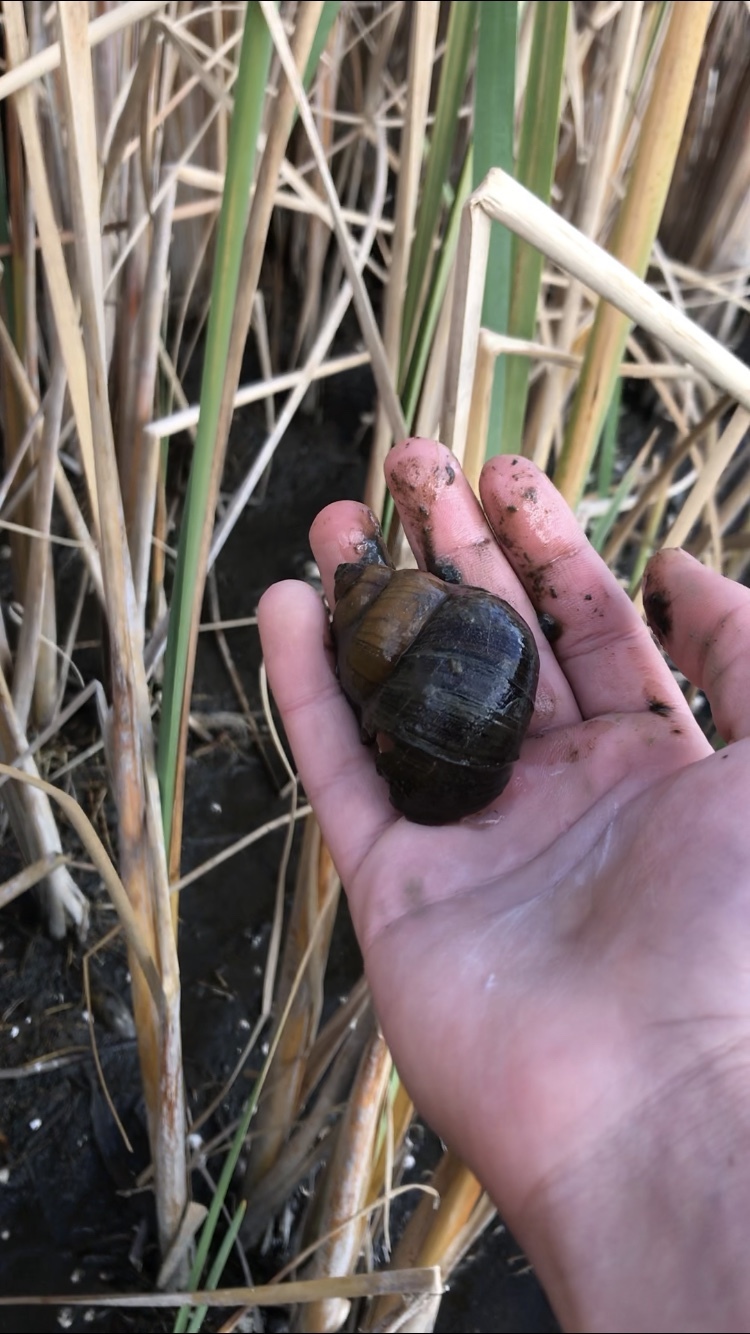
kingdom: Animalia
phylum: Mollusca
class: Gastropoda
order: Architaenioglossa
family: Viviparidae
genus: Cipangopaludina
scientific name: Cipangopaludina chinensis
